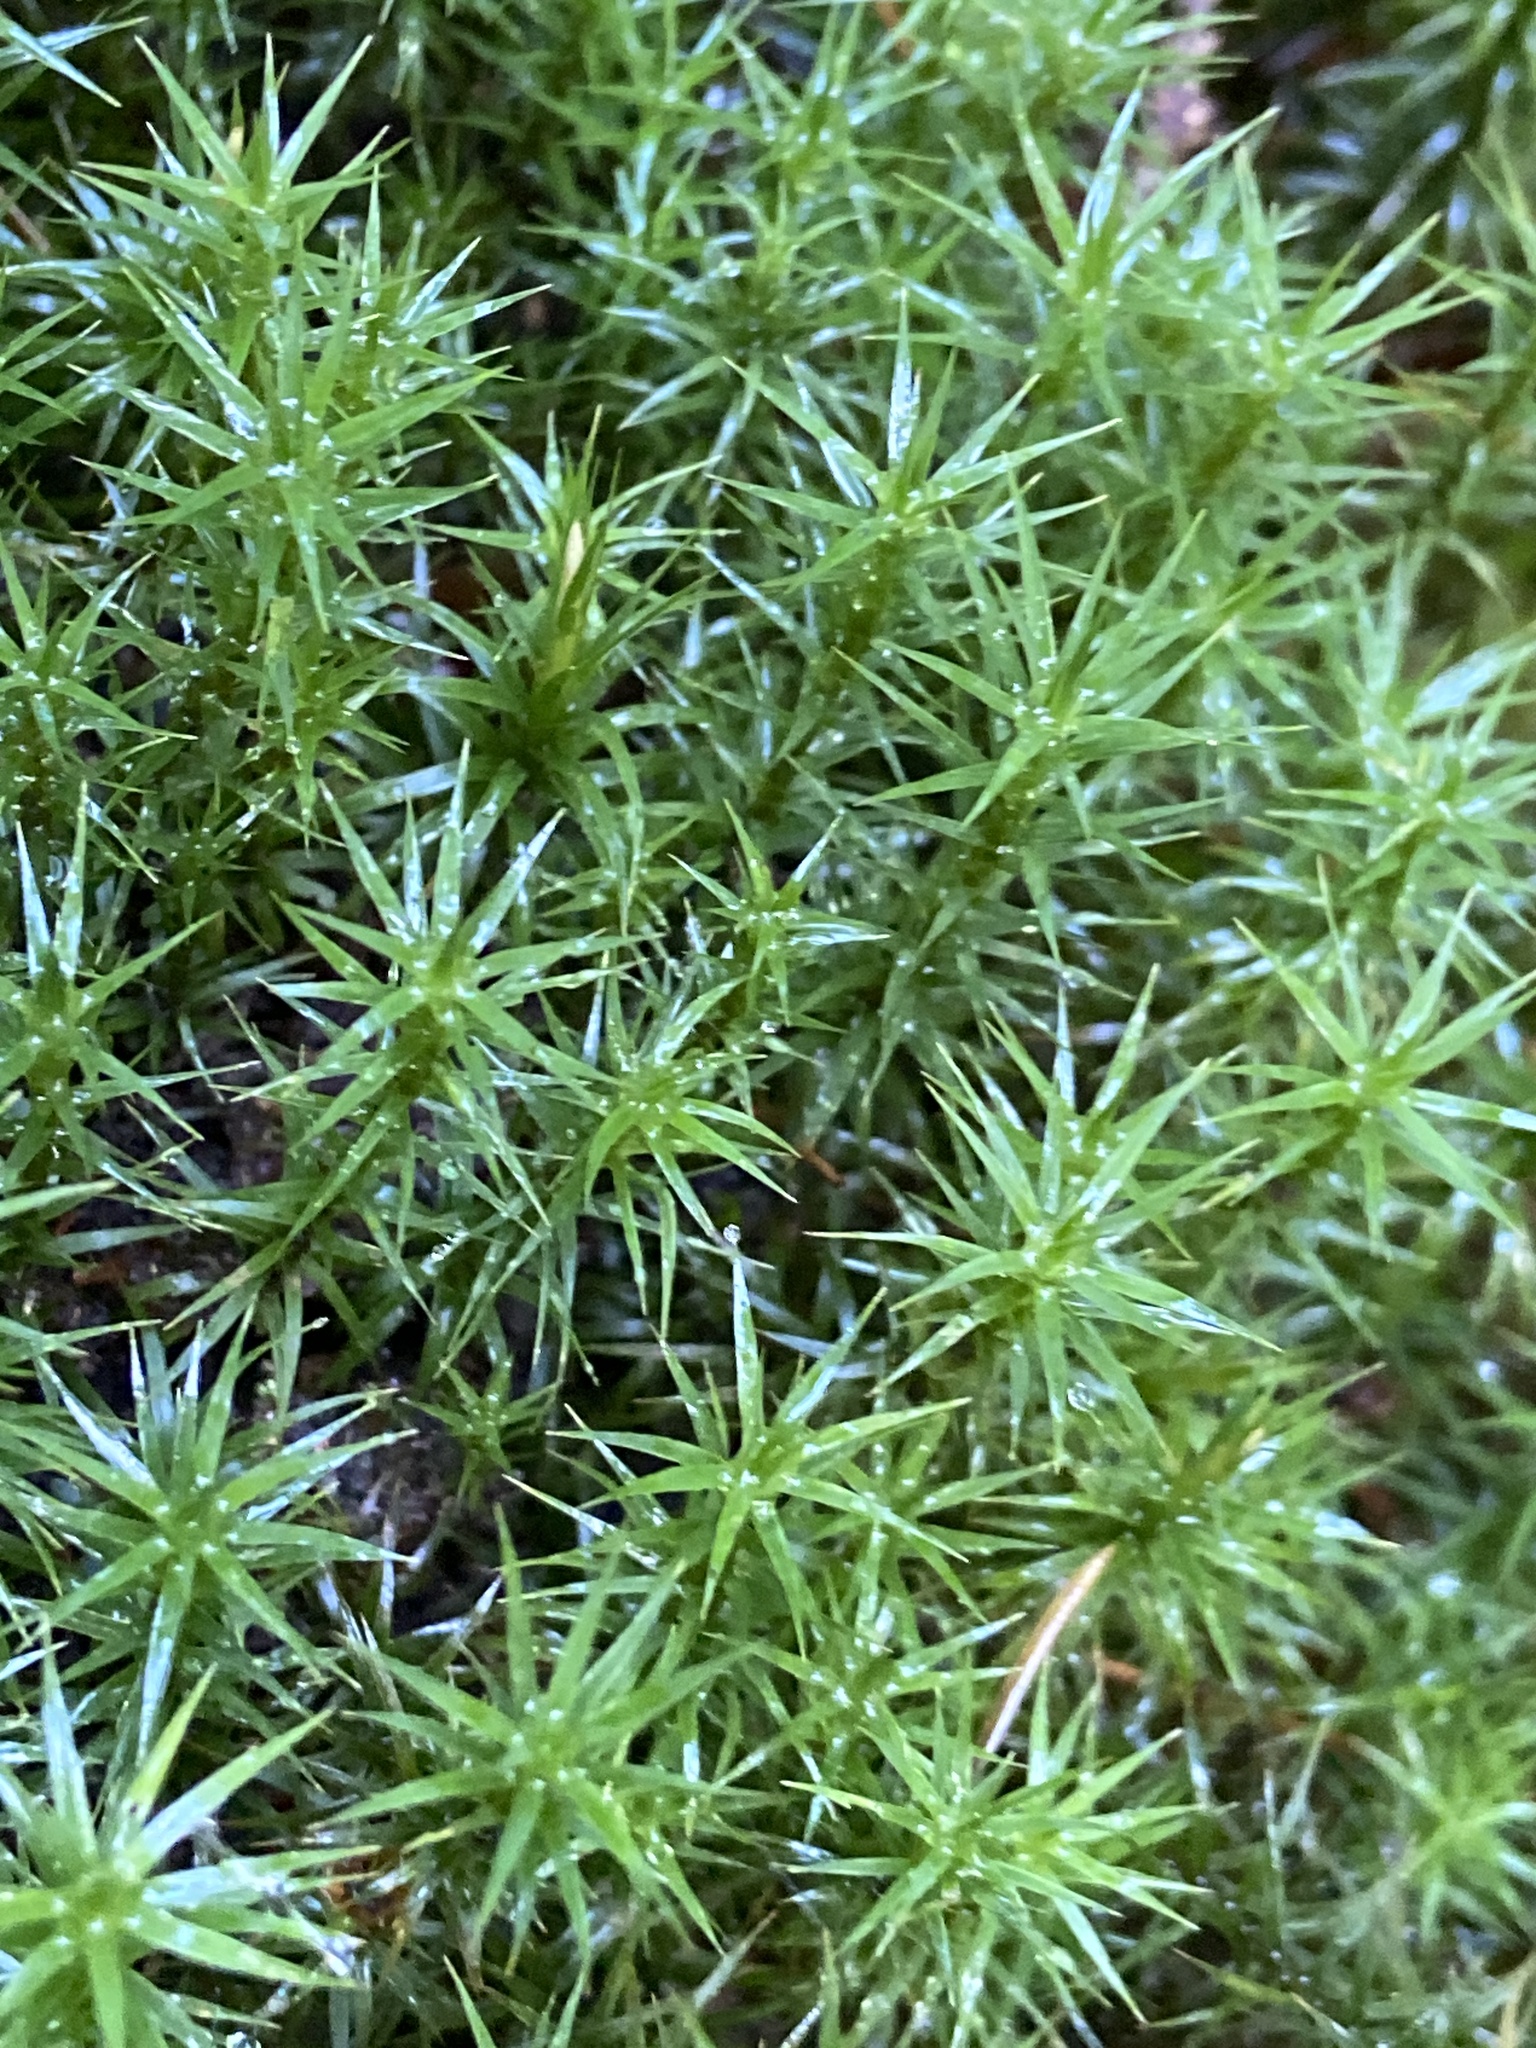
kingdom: Plantae
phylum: Bryophyta
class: Polytrichopsida
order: Polytrichales
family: Polytrichaceae
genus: Polytrichum
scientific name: Polytrichum formosum
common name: Bank haircap moss
